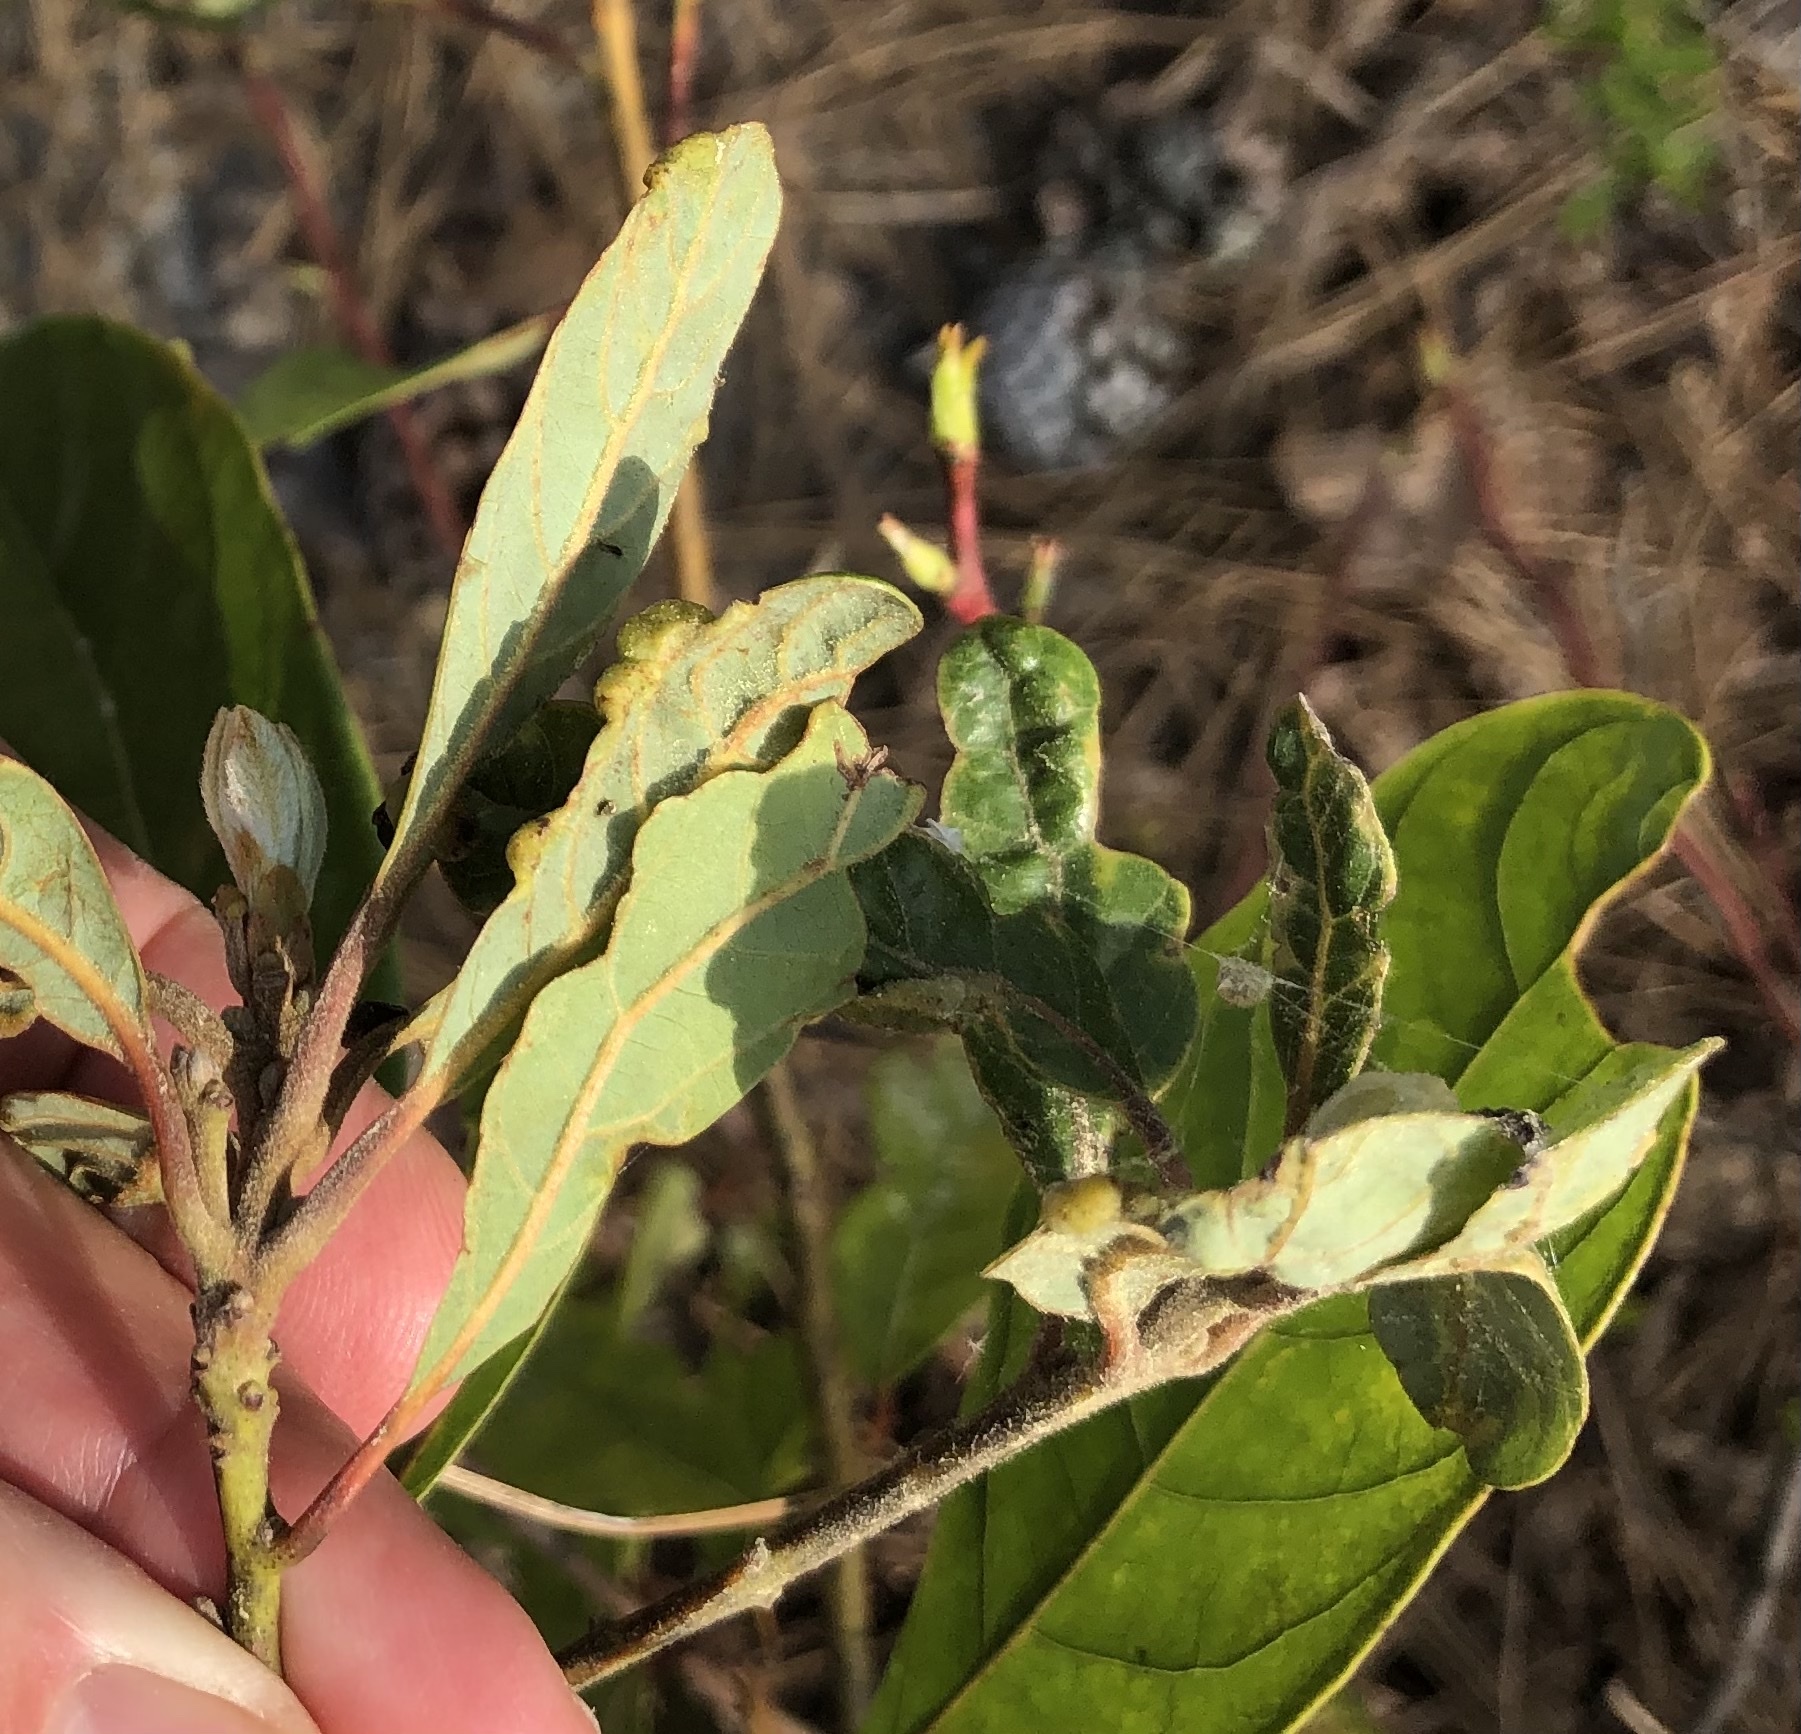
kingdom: Plantae
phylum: Tracheophyta
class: Magnoliopsida
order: Laurales
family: Lauraceae
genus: Persea
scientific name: Persea palustris
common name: Swampbay
